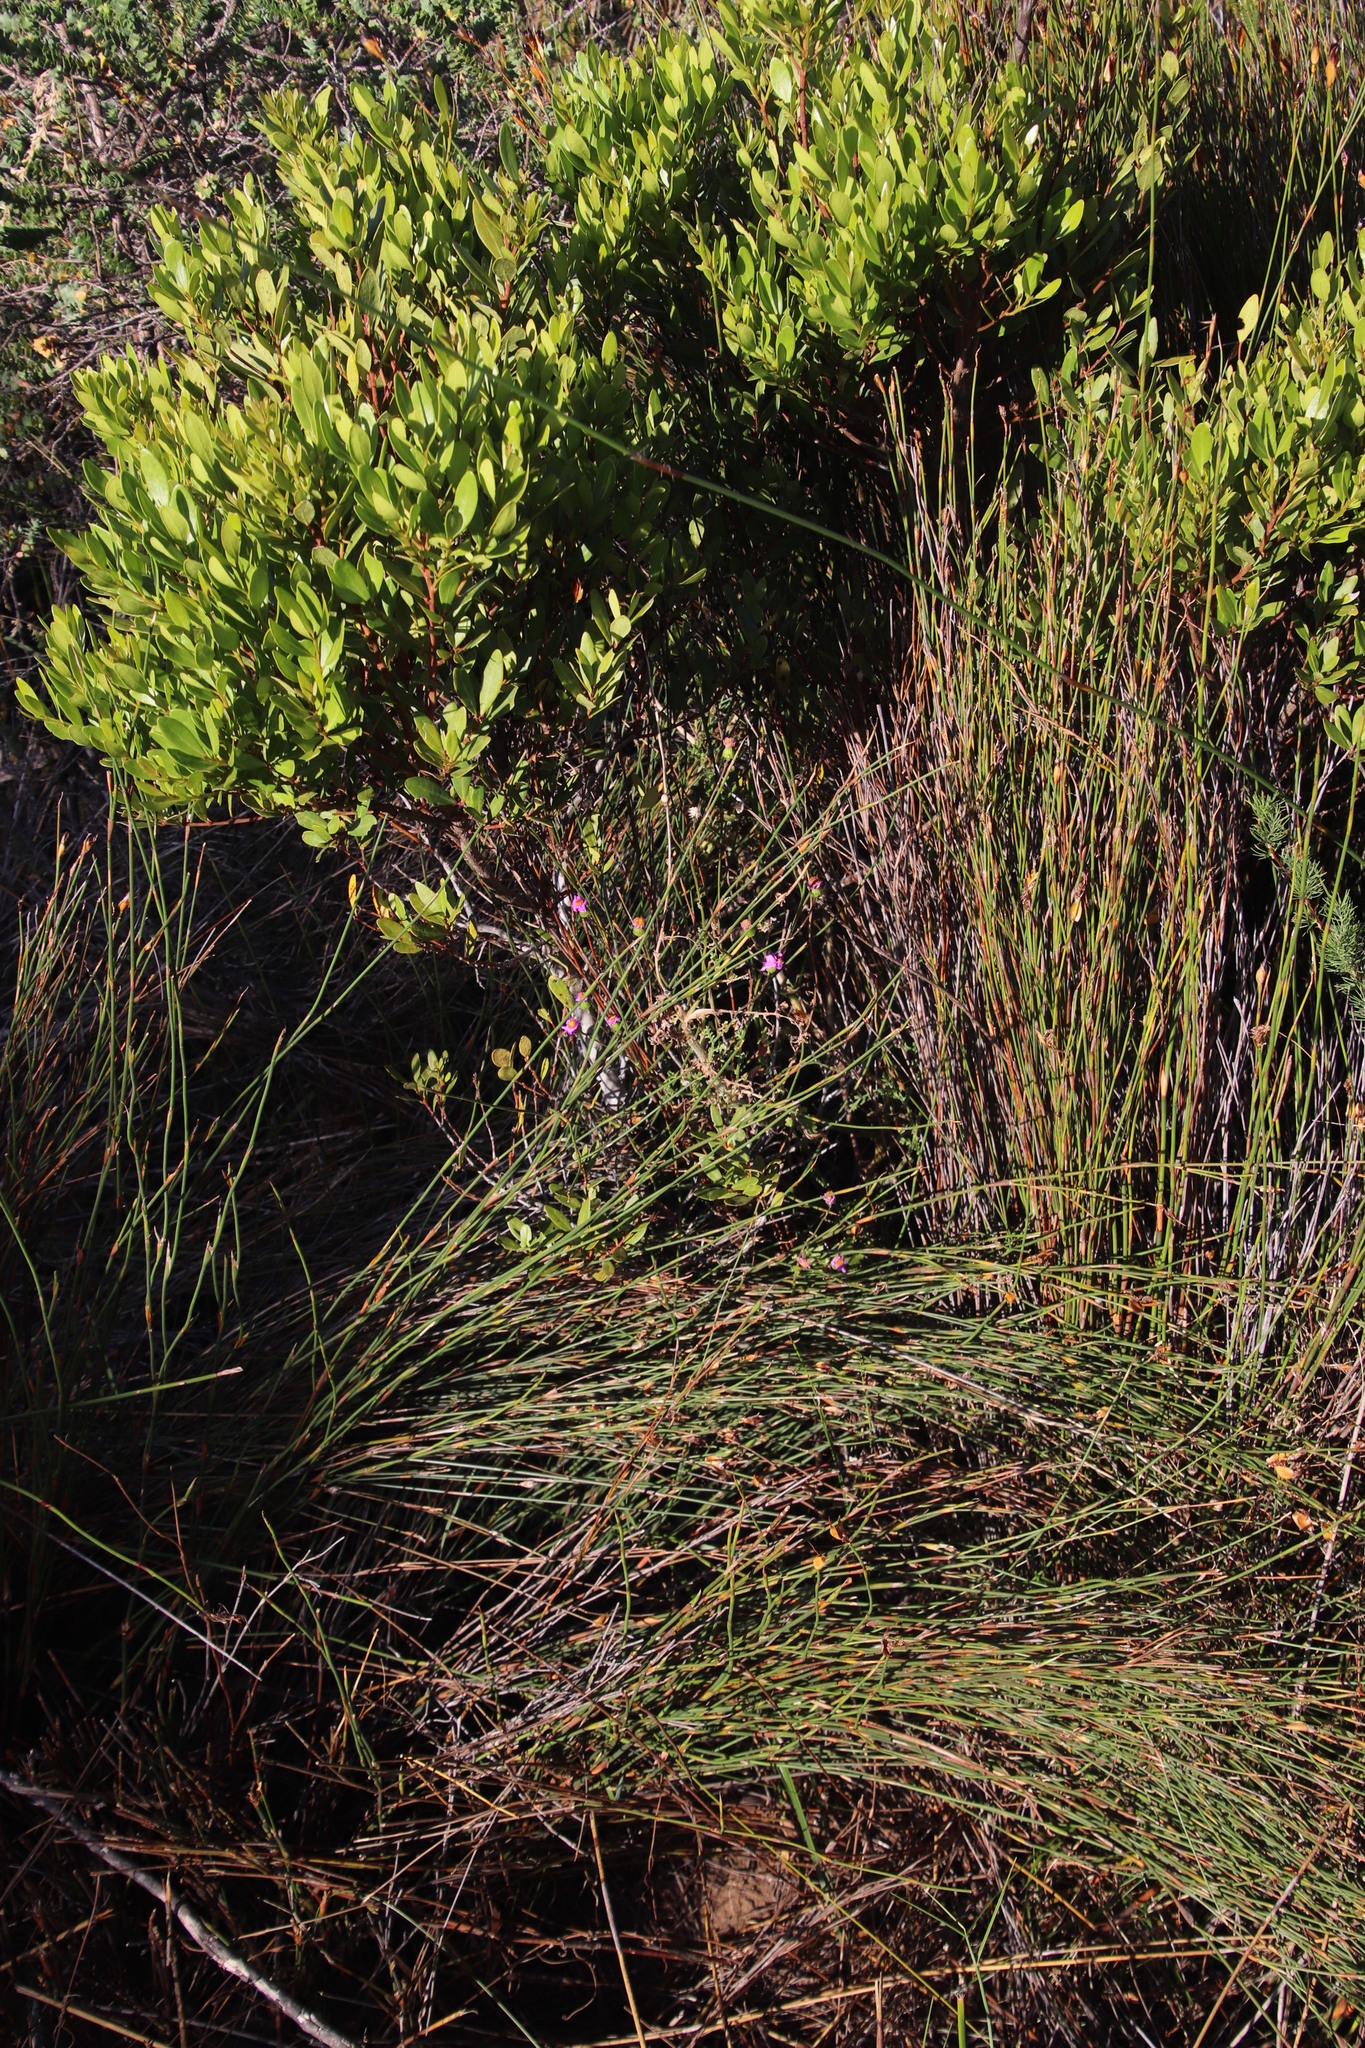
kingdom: Plantae
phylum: Tracheophyta
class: Magnoliopsida
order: Asterales
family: Asteraceae
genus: Senecio
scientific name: Senecio elegans
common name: Purple groundsel
